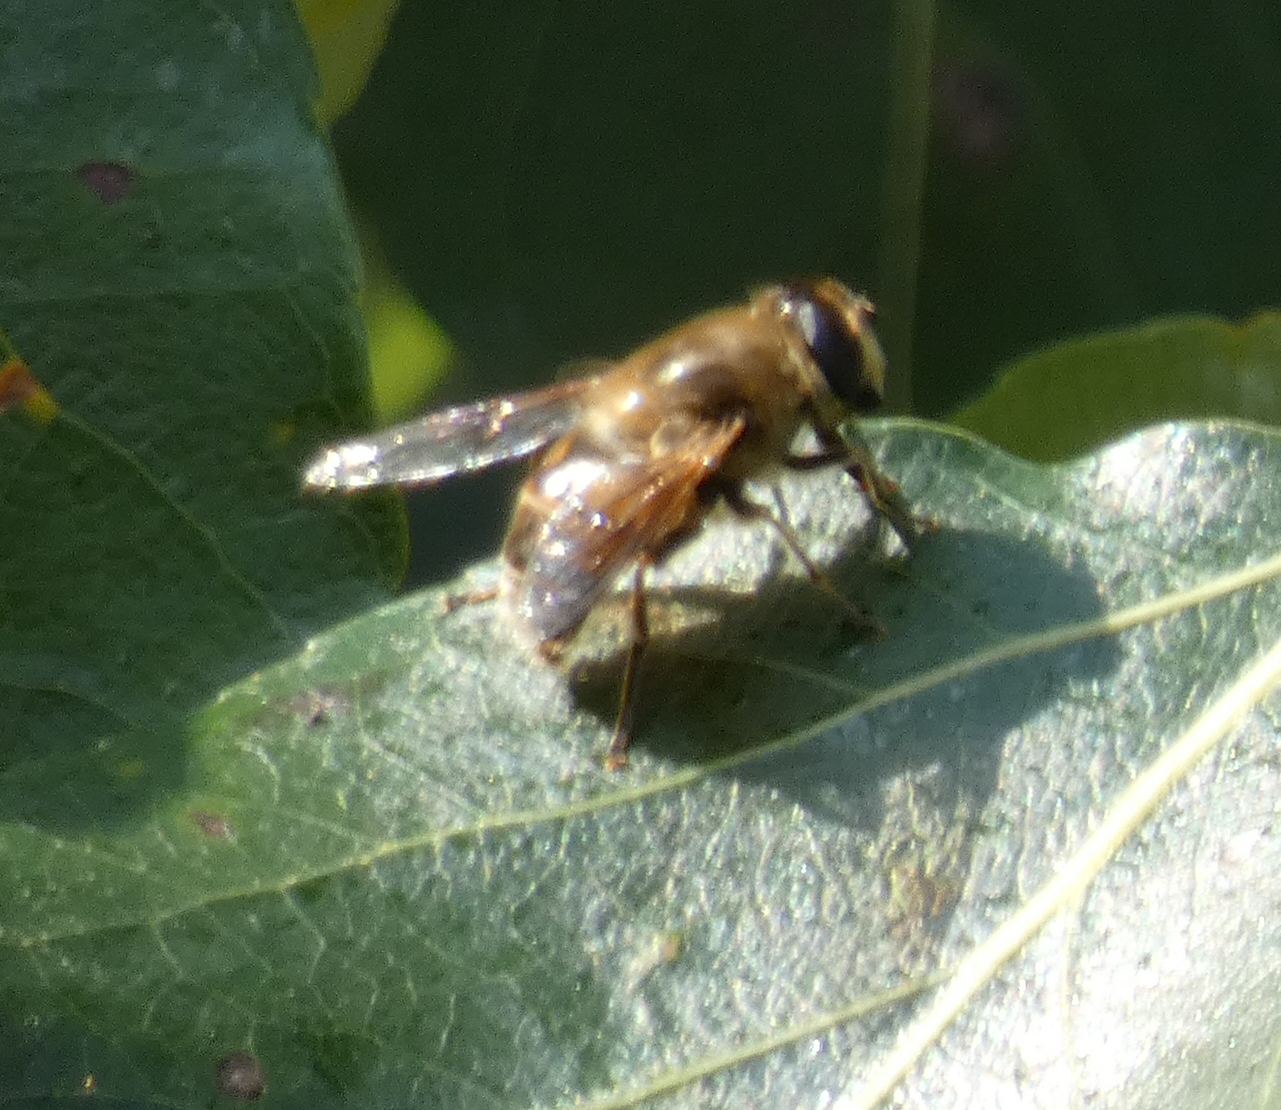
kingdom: Animalia
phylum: Arthropoda
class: Insecta
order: Diptera
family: Syrphidae
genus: Eristalis
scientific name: Eristalis tenax
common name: Drone fly
